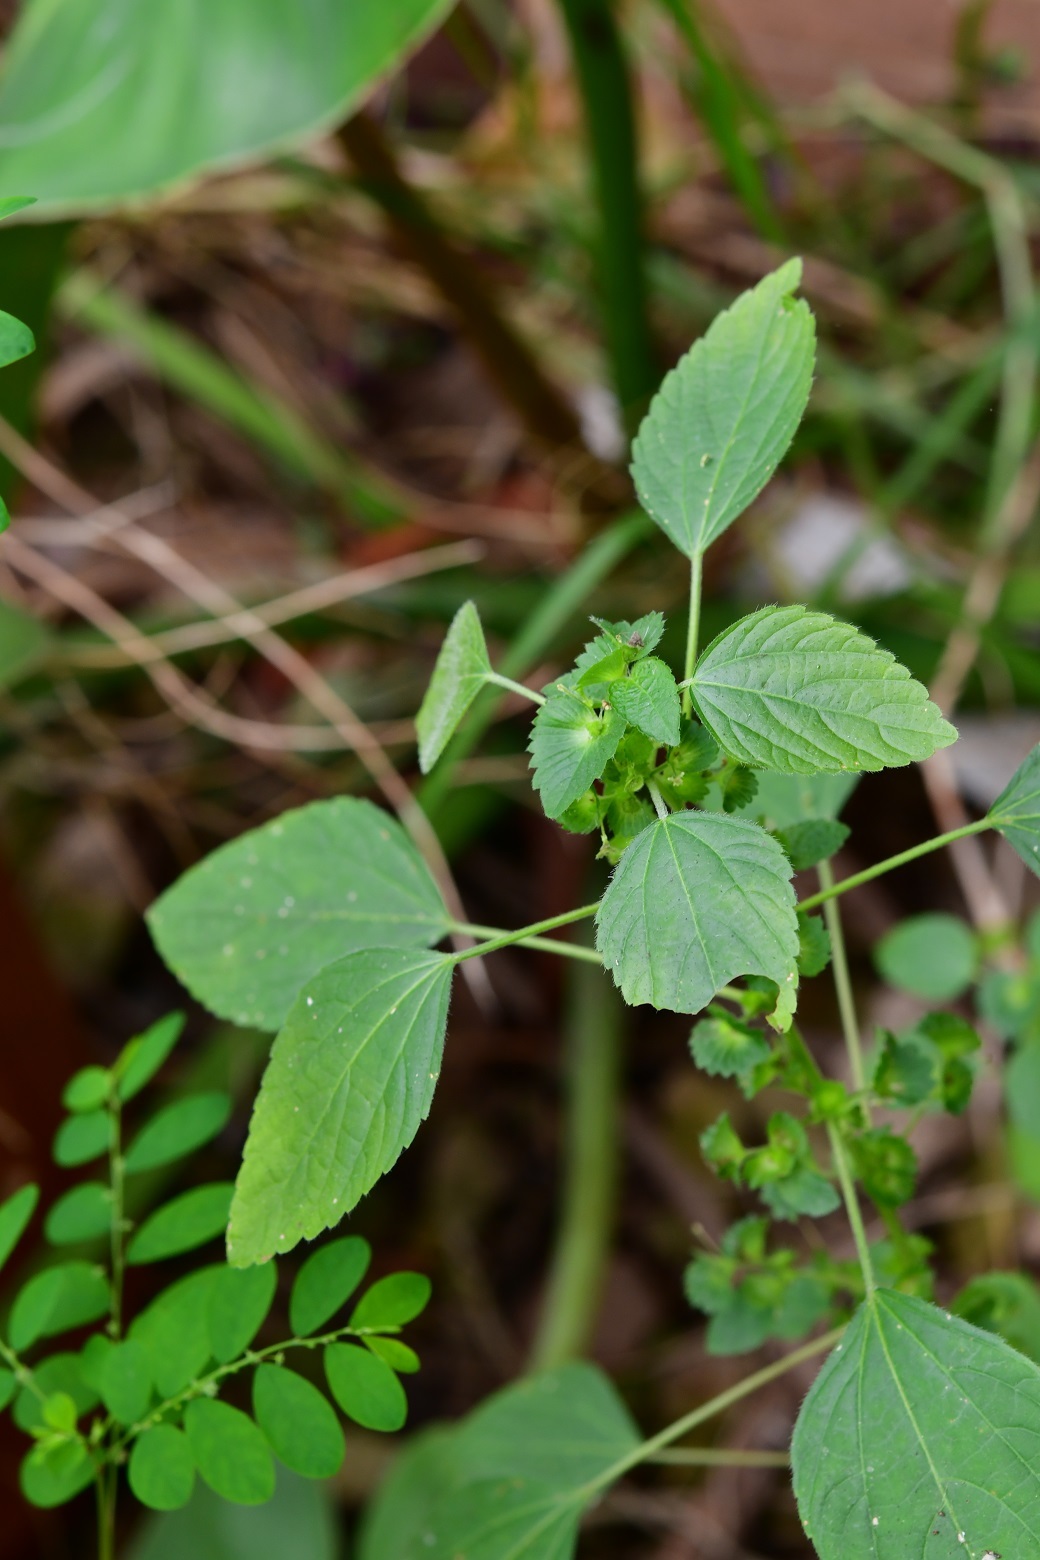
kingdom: Plantae
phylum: Tracheophyta
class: Magnoliopsida
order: Malpighiales
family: Euphorbiaceae
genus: Acalypha
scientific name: Acalypha mexicana
